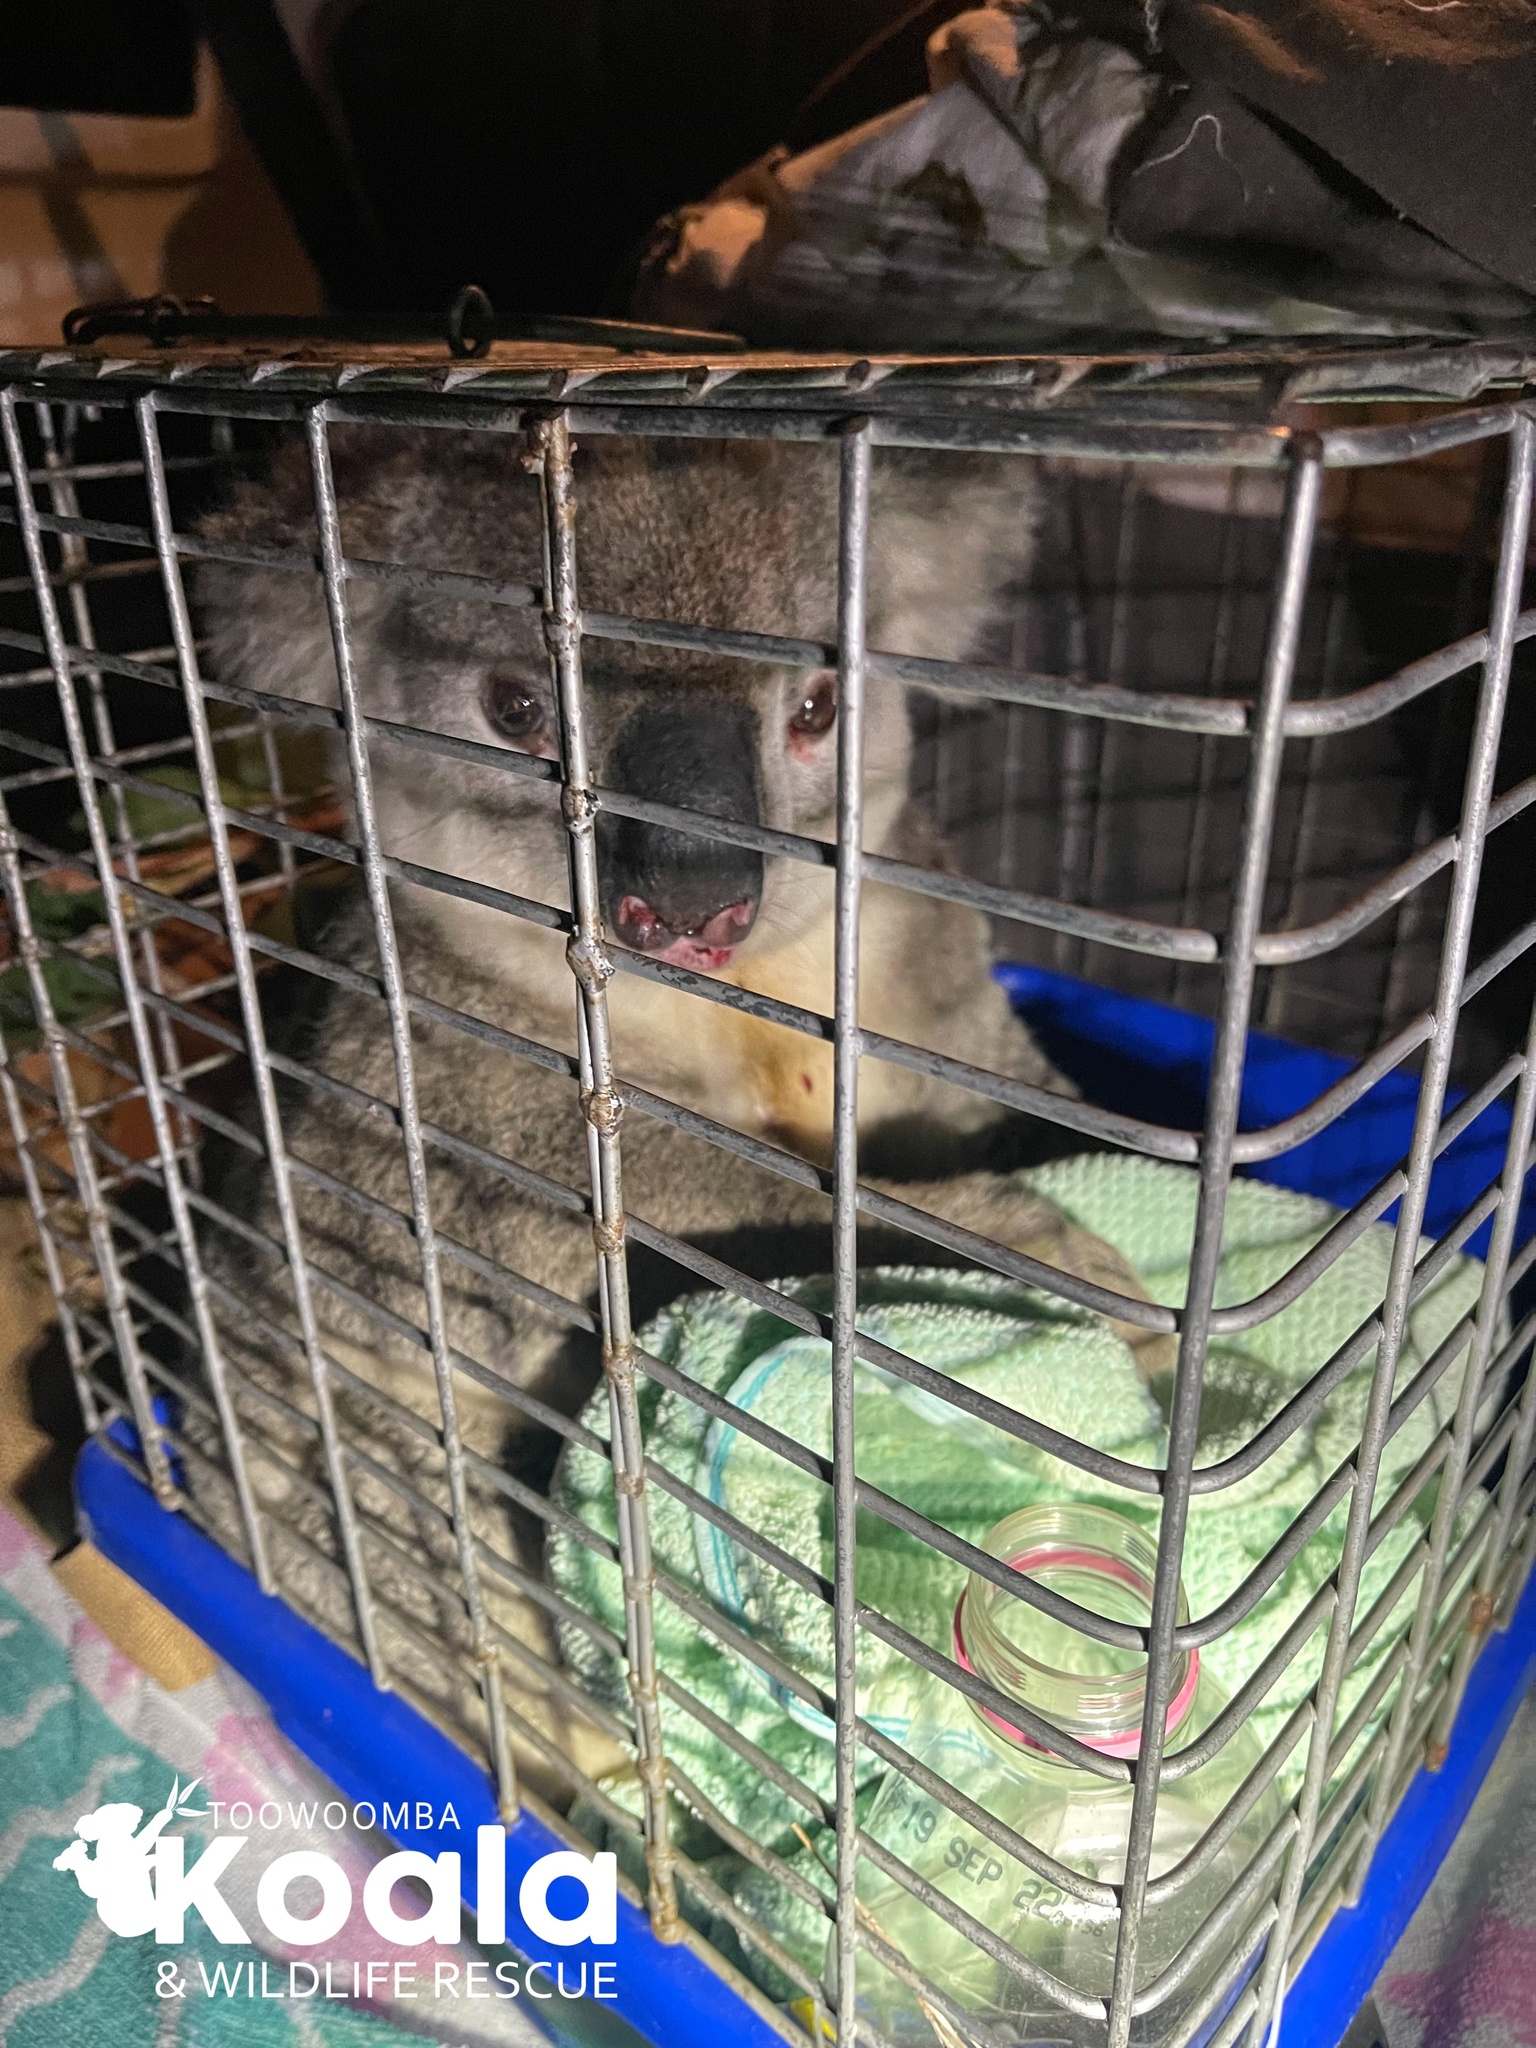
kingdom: Animalia
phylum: Chordata
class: Mammalia
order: Diprotodontia
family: Phascolarctidae
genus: Phascolarctos
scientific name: Phascolarctos cinereus
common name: Koala
